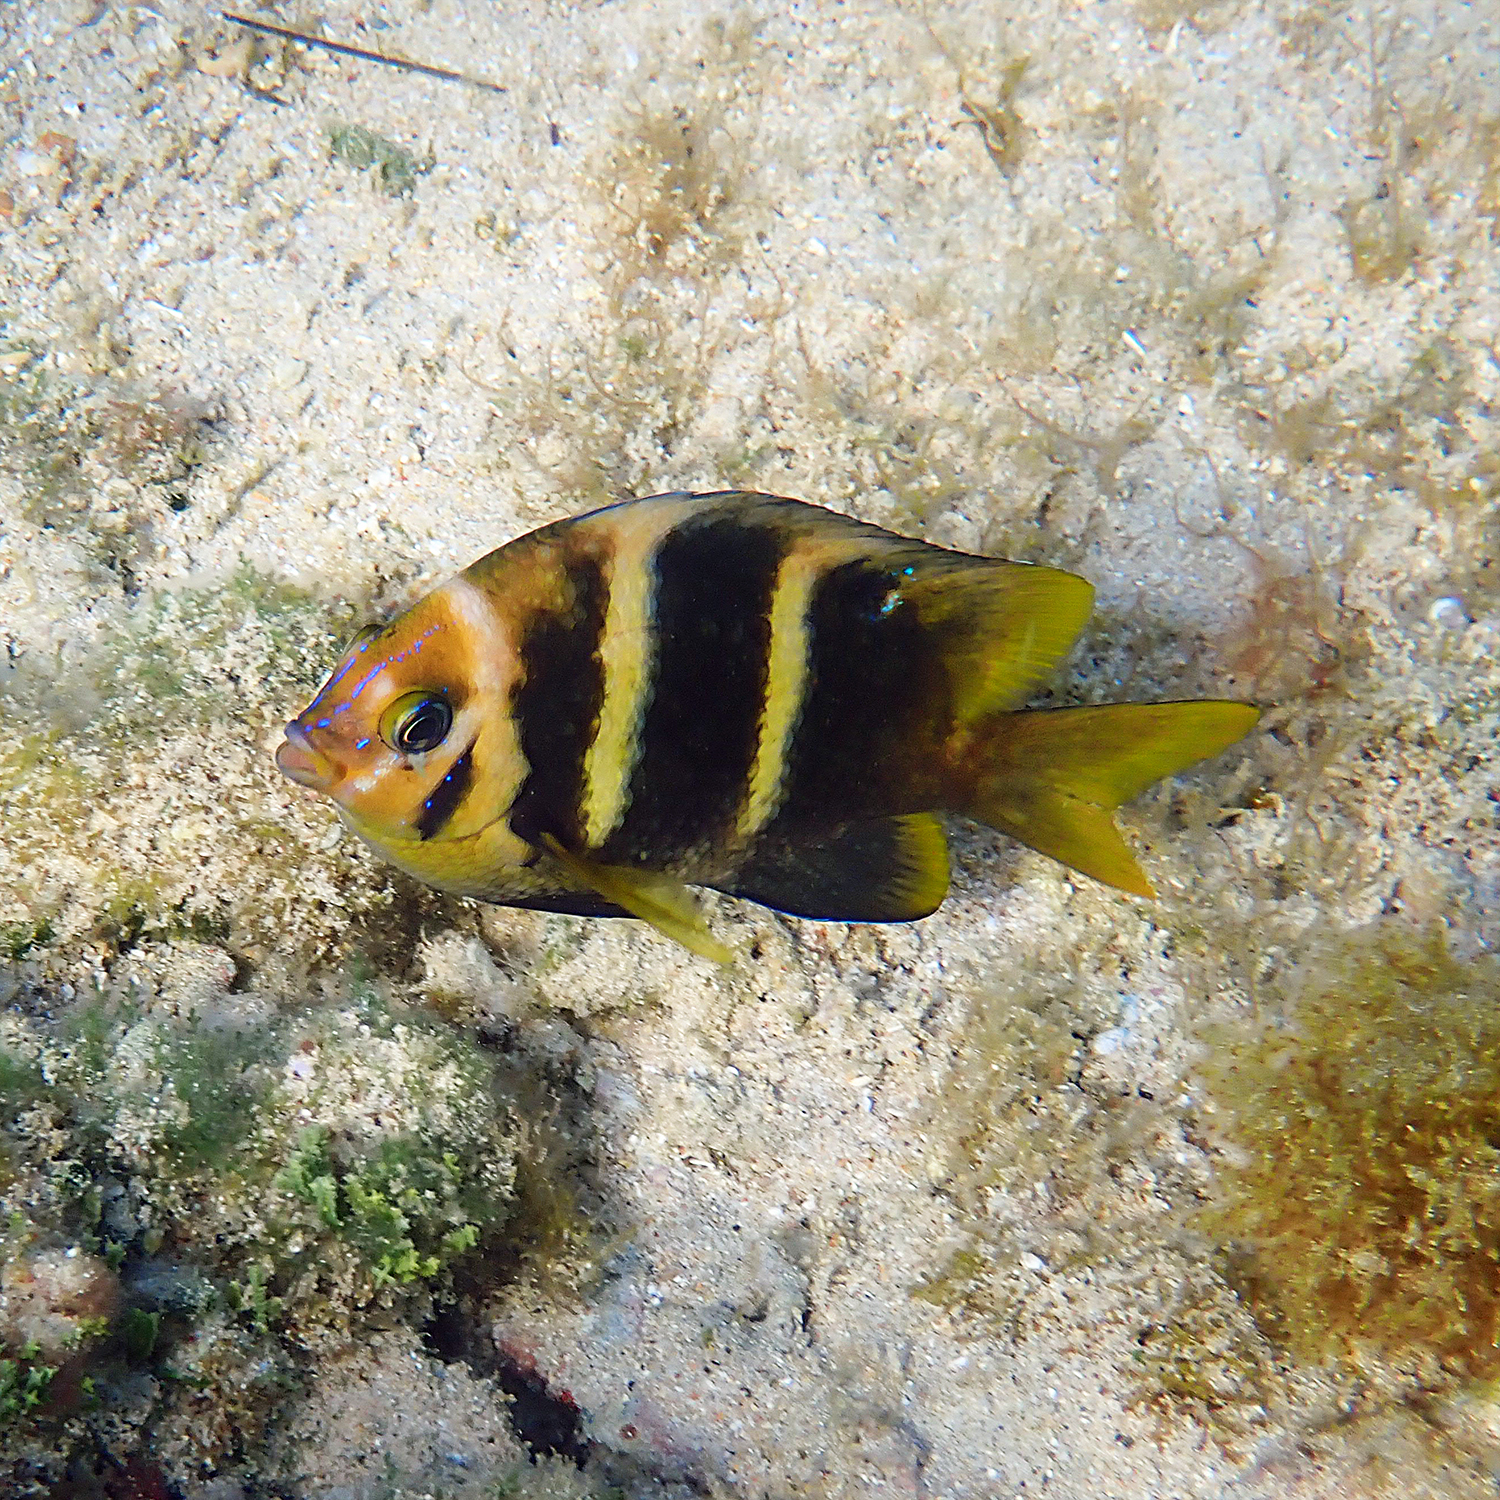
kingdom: Animalia
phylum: Chordata
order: Perciformes
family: Pomacentridae
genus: Parma
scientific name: Parma polylepis
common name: Banded parma
